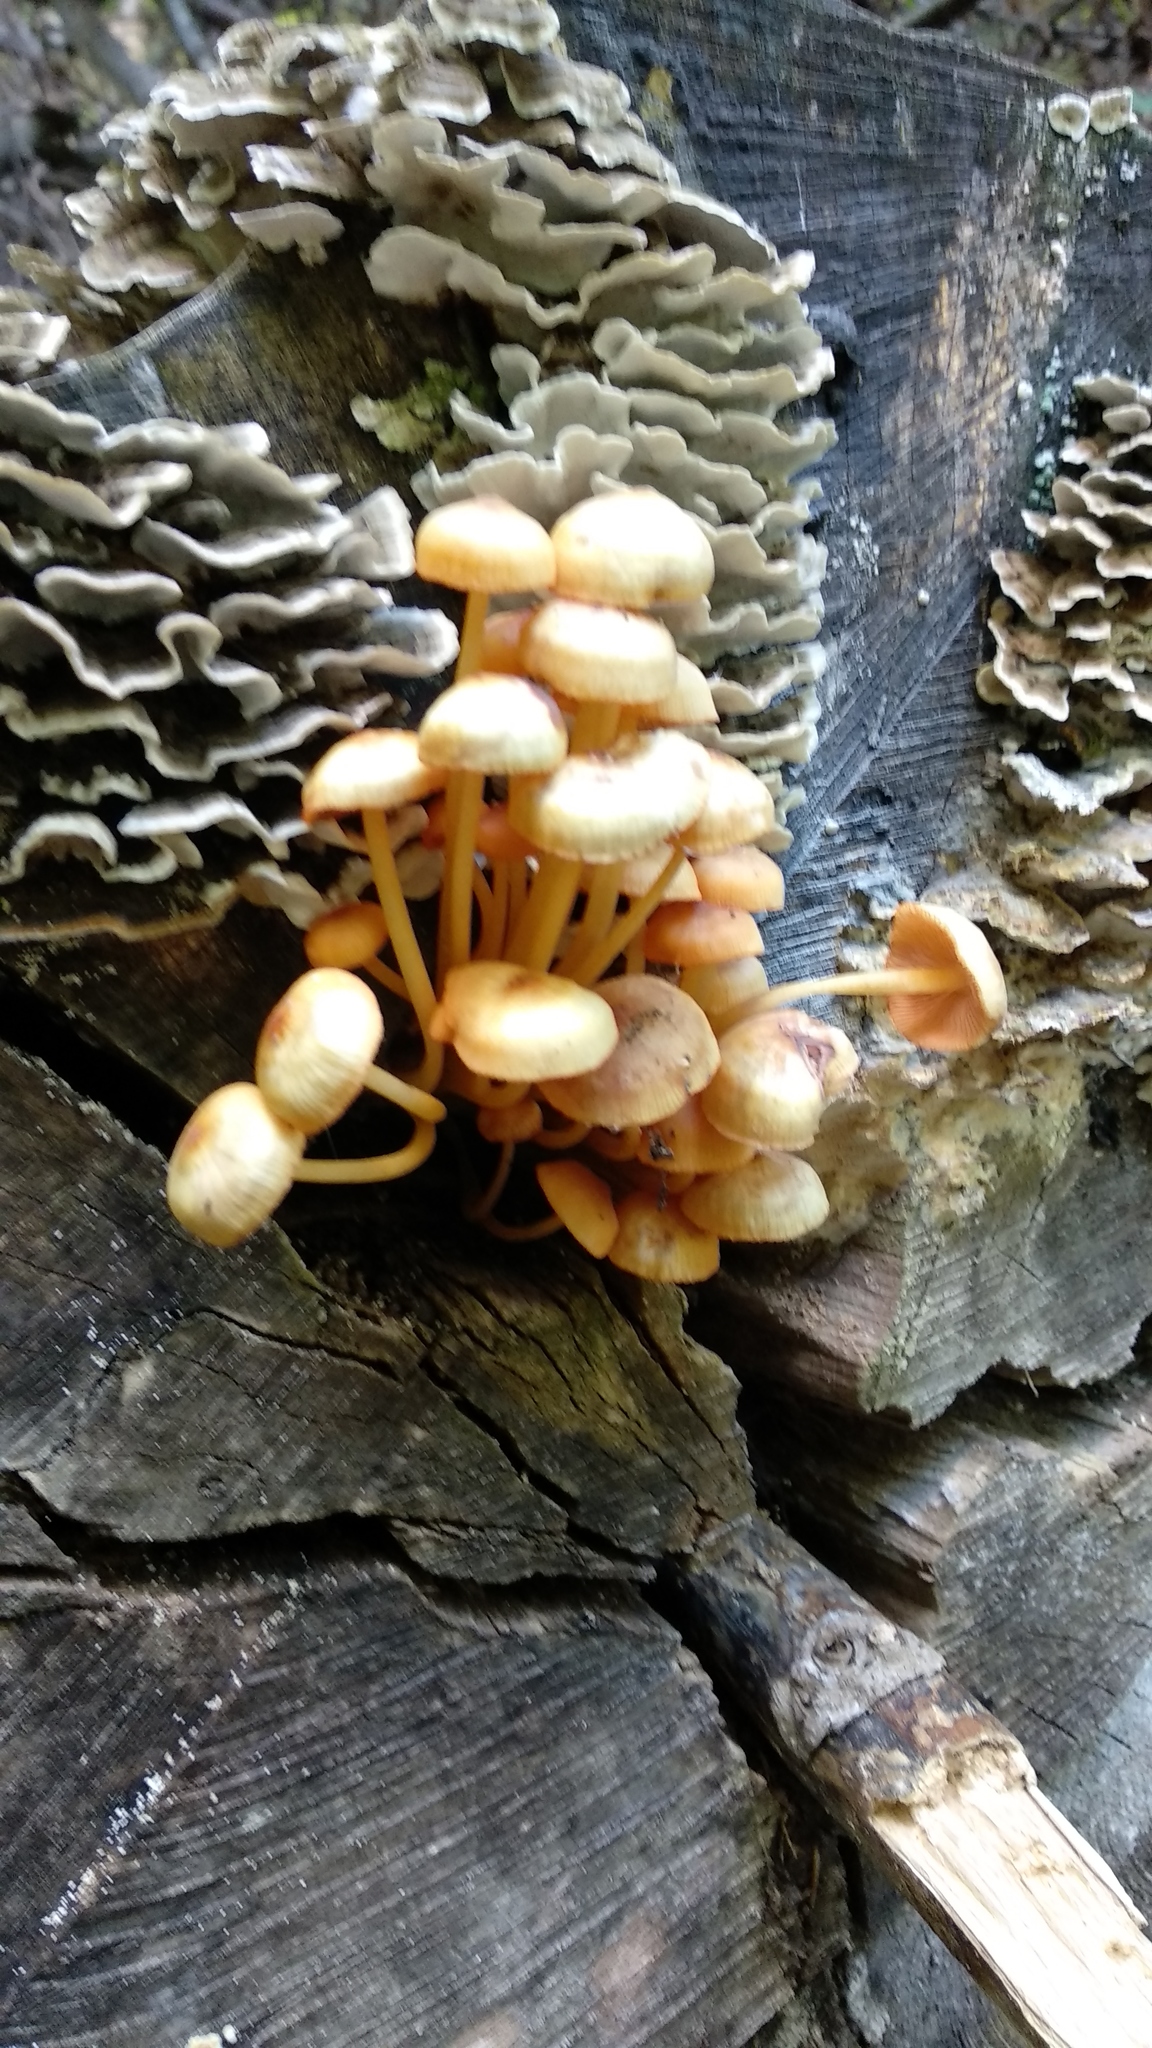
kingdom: Fungi
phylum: Basidiomycota
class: Agaricomycetes
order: Agaricales
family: Mycenaceae
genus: Mycena
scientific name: Mycena leaiana
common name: Orange mycena
